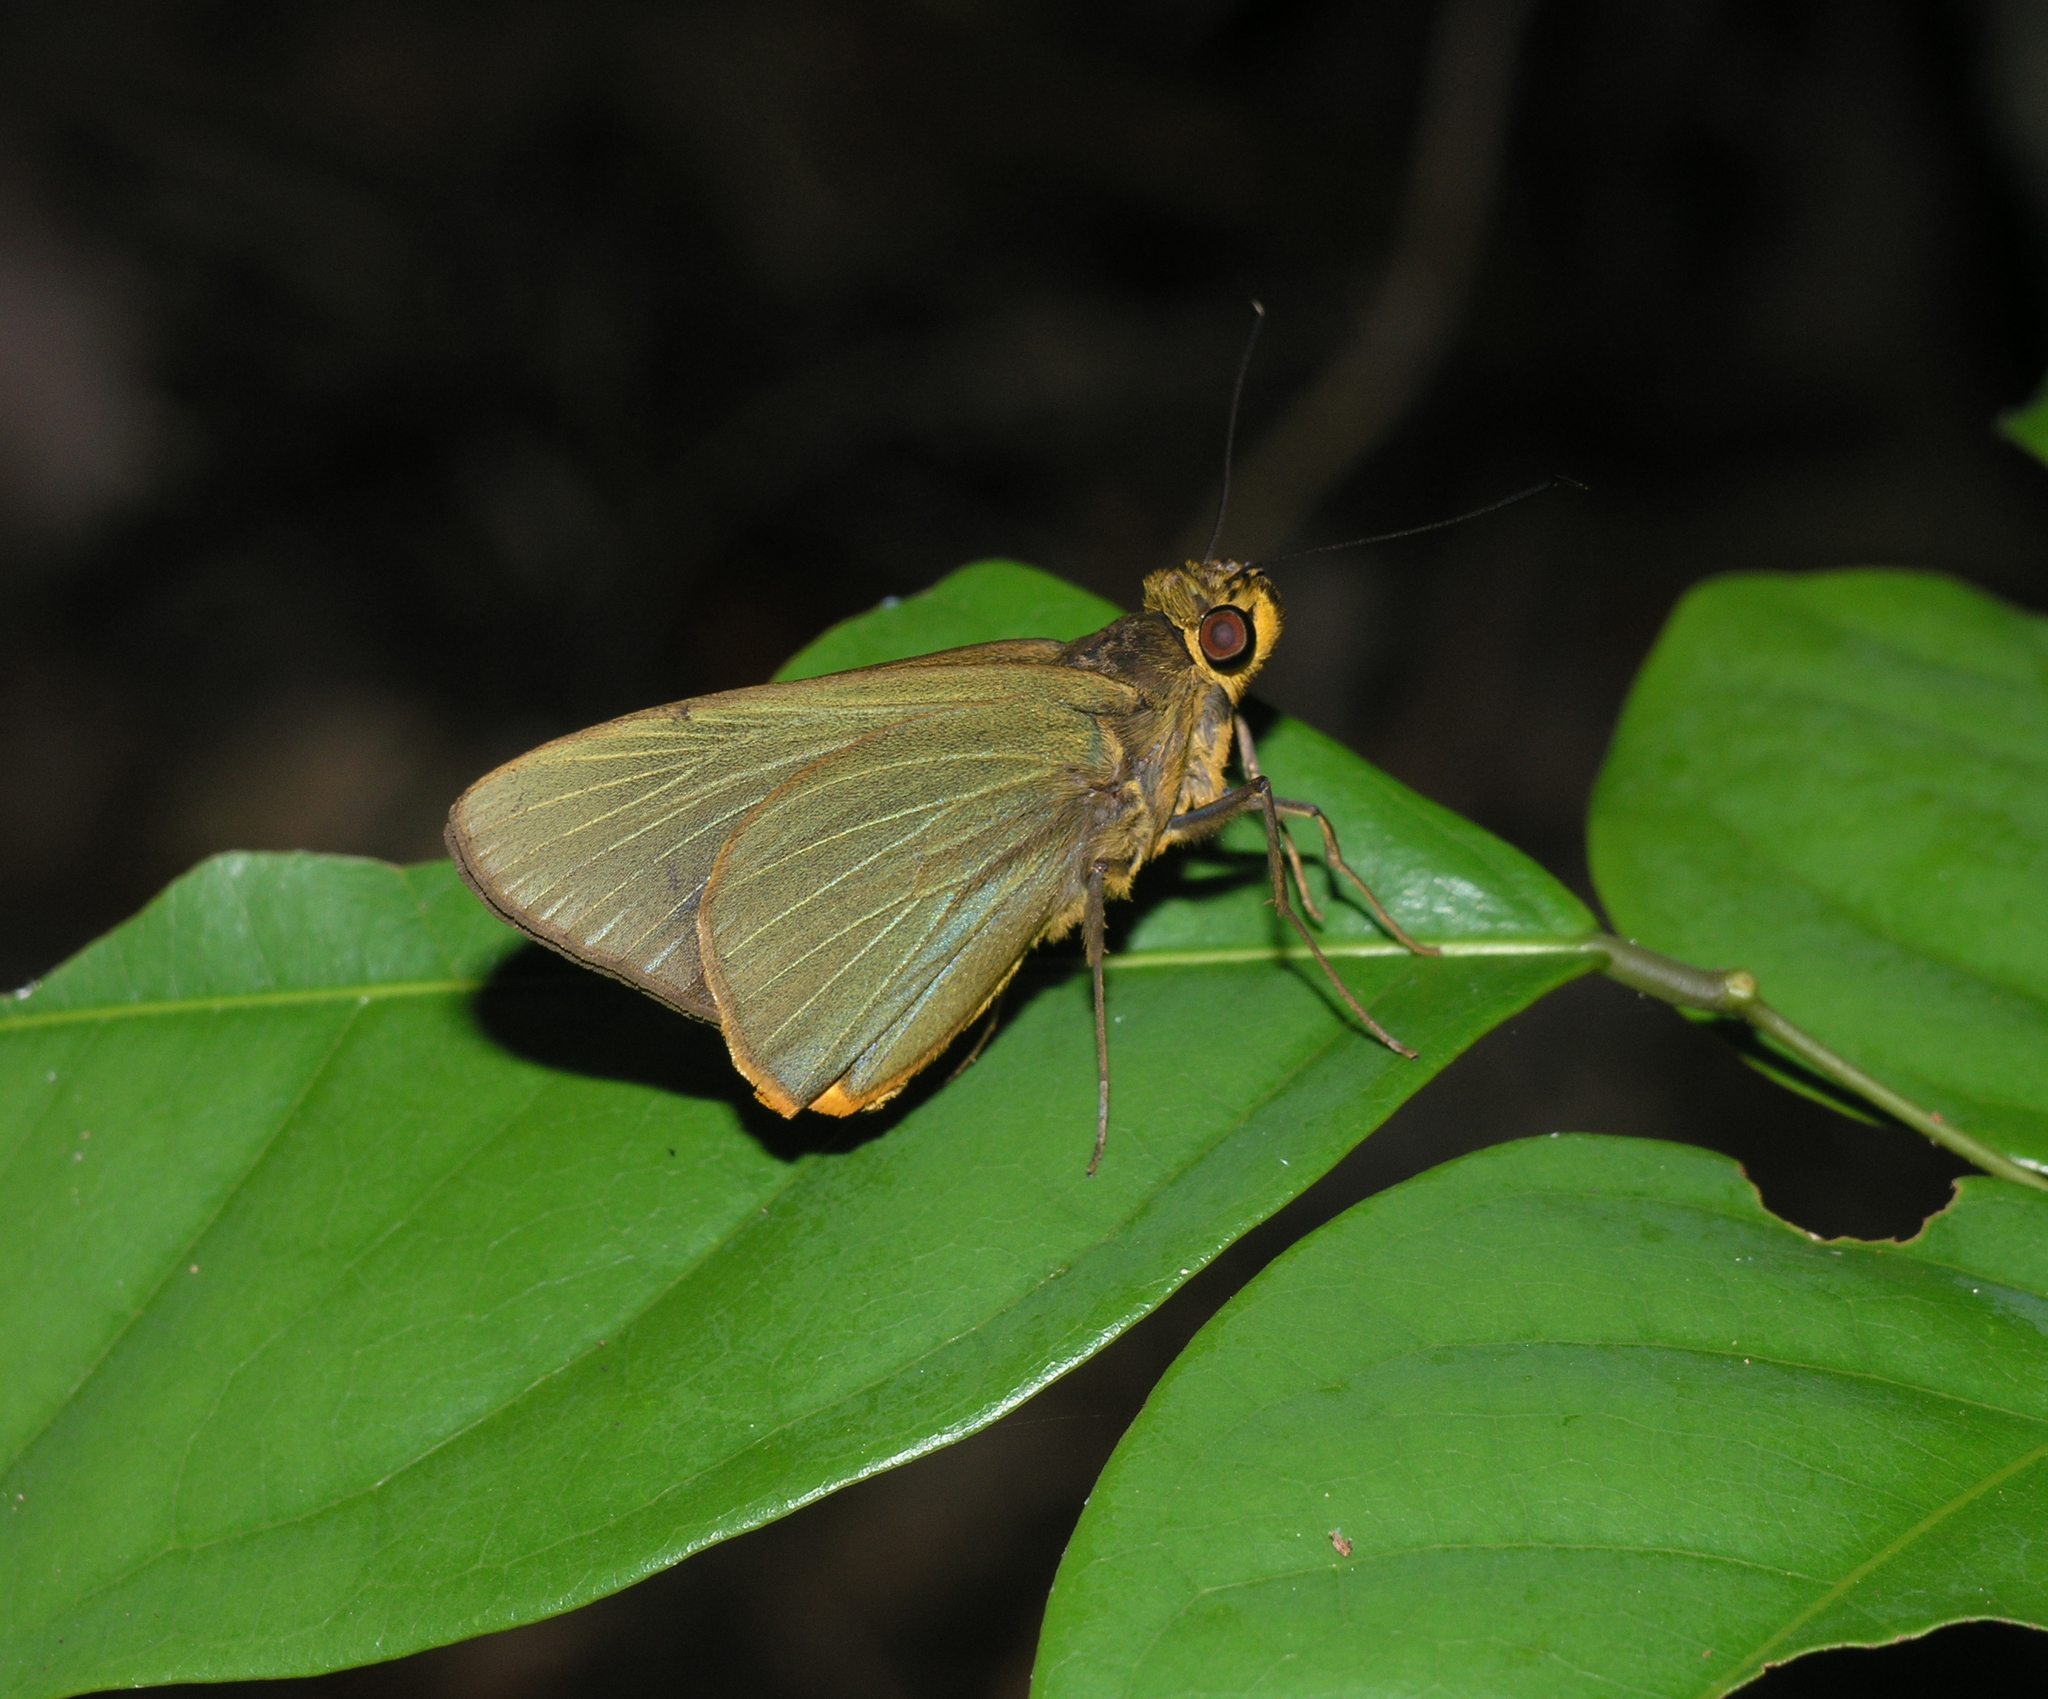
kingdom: Animalia
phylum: Arthropoda
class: Insecta
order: Lepidoptera
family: Hesperiidae
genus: Pirdana
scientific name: Pirdana distanti
